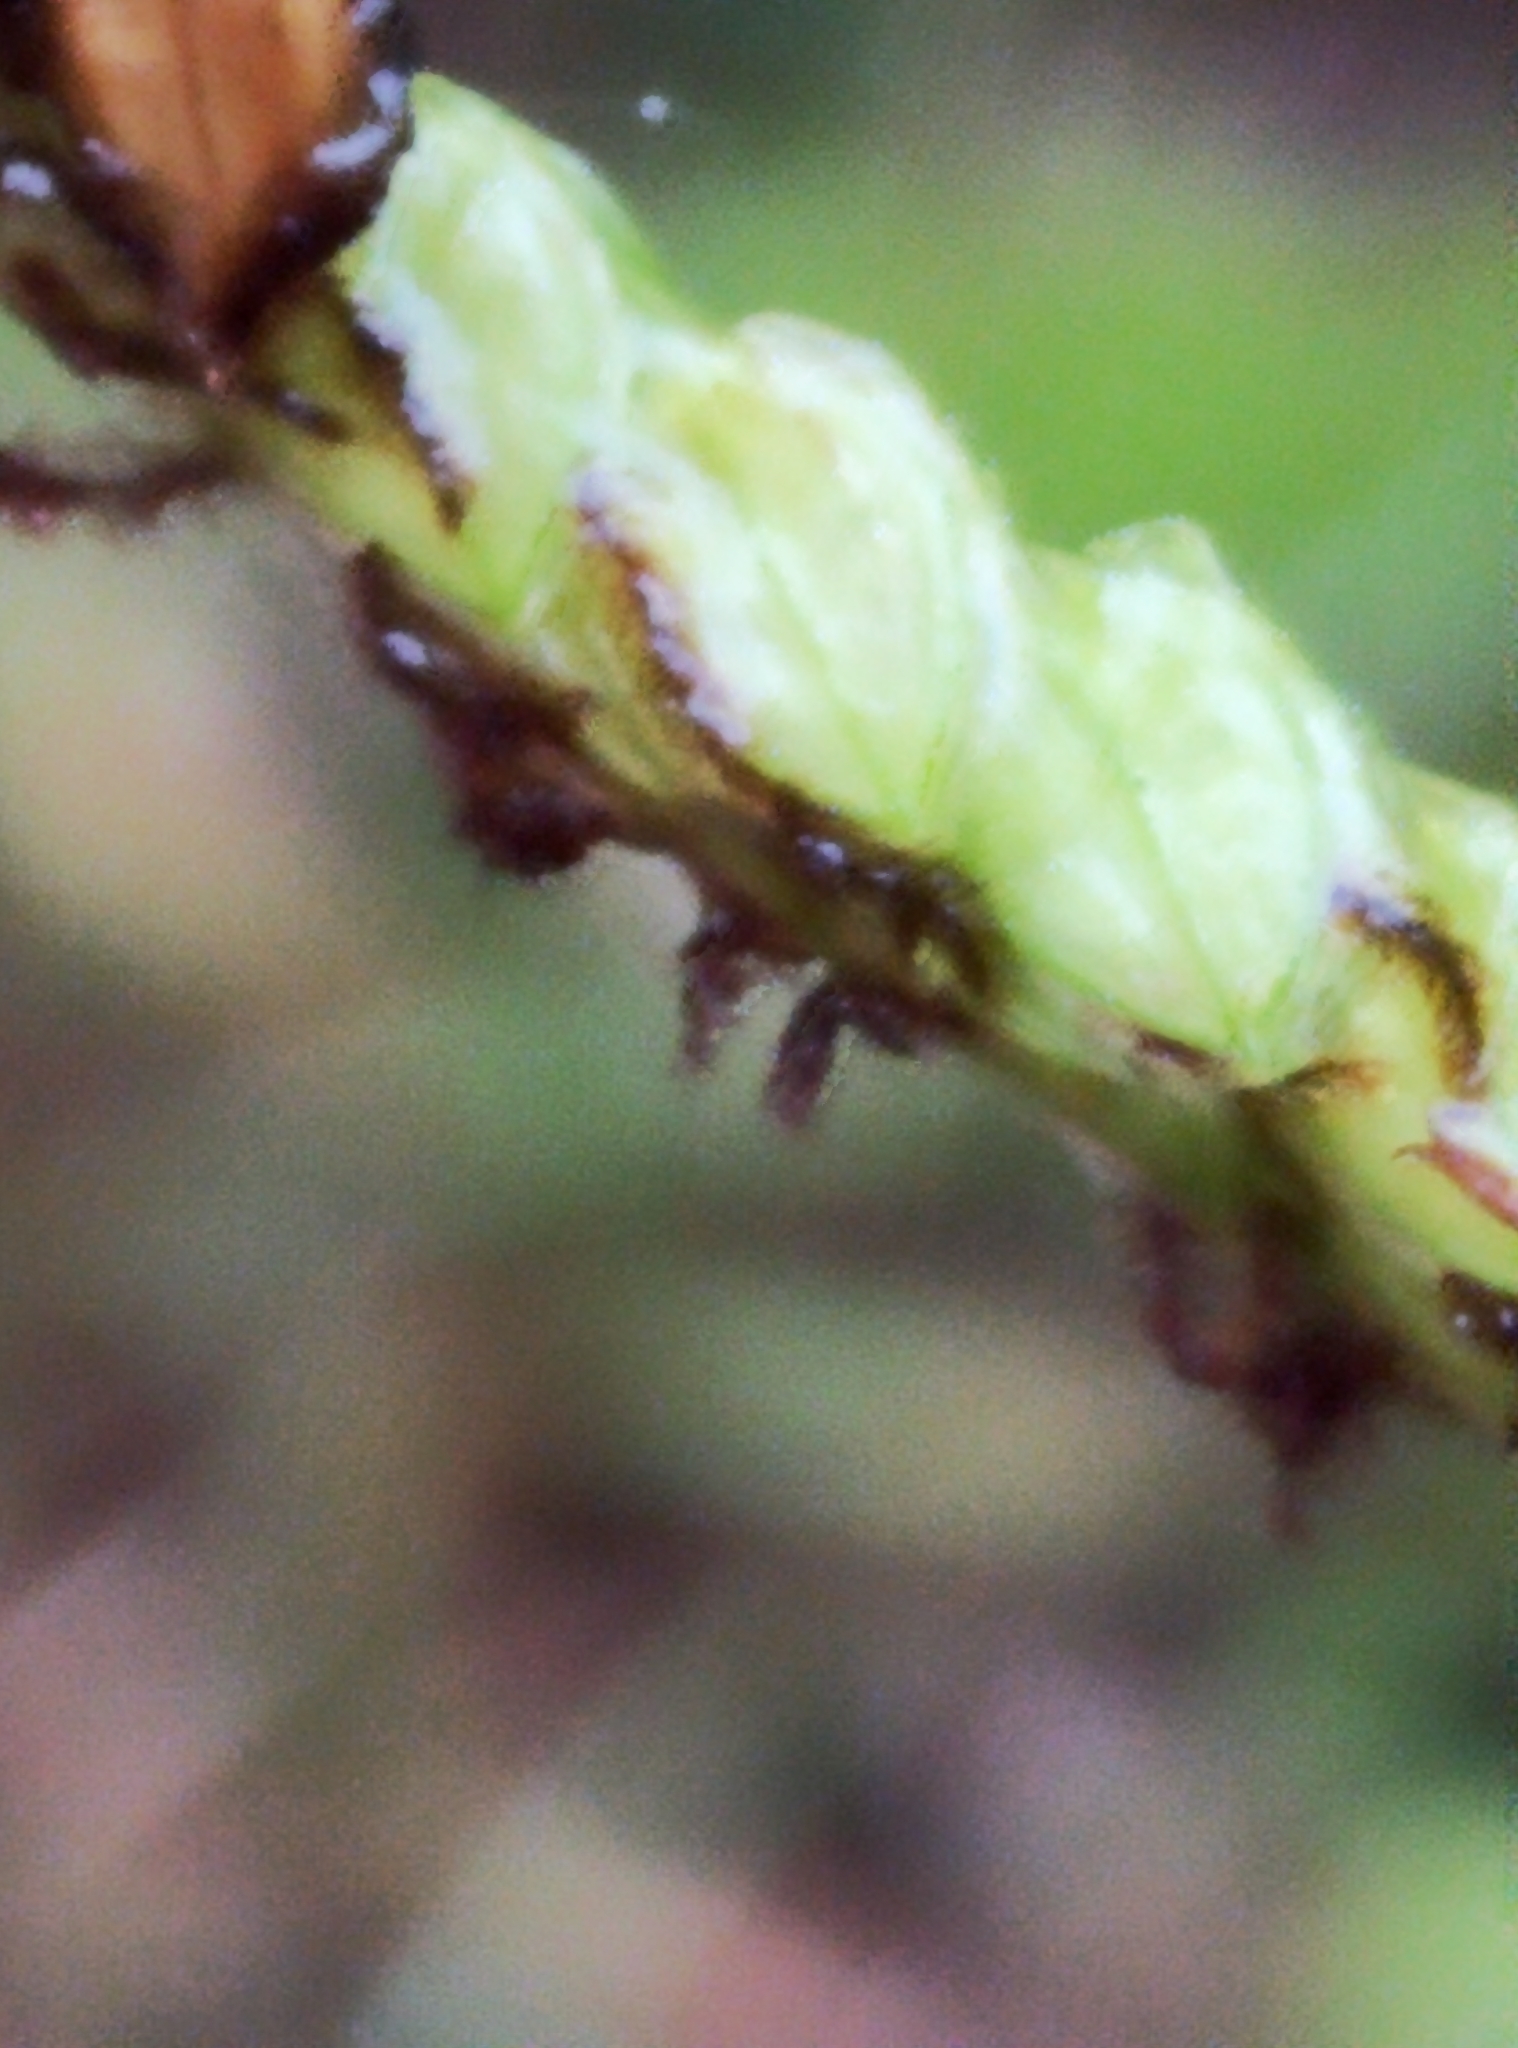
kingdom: Plantae
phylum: Tracheophyta
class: Liliopsida
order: Poales
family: Poaceae
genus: Paspalum
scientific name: Paspalum dilatatum
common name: Dallisgrass
